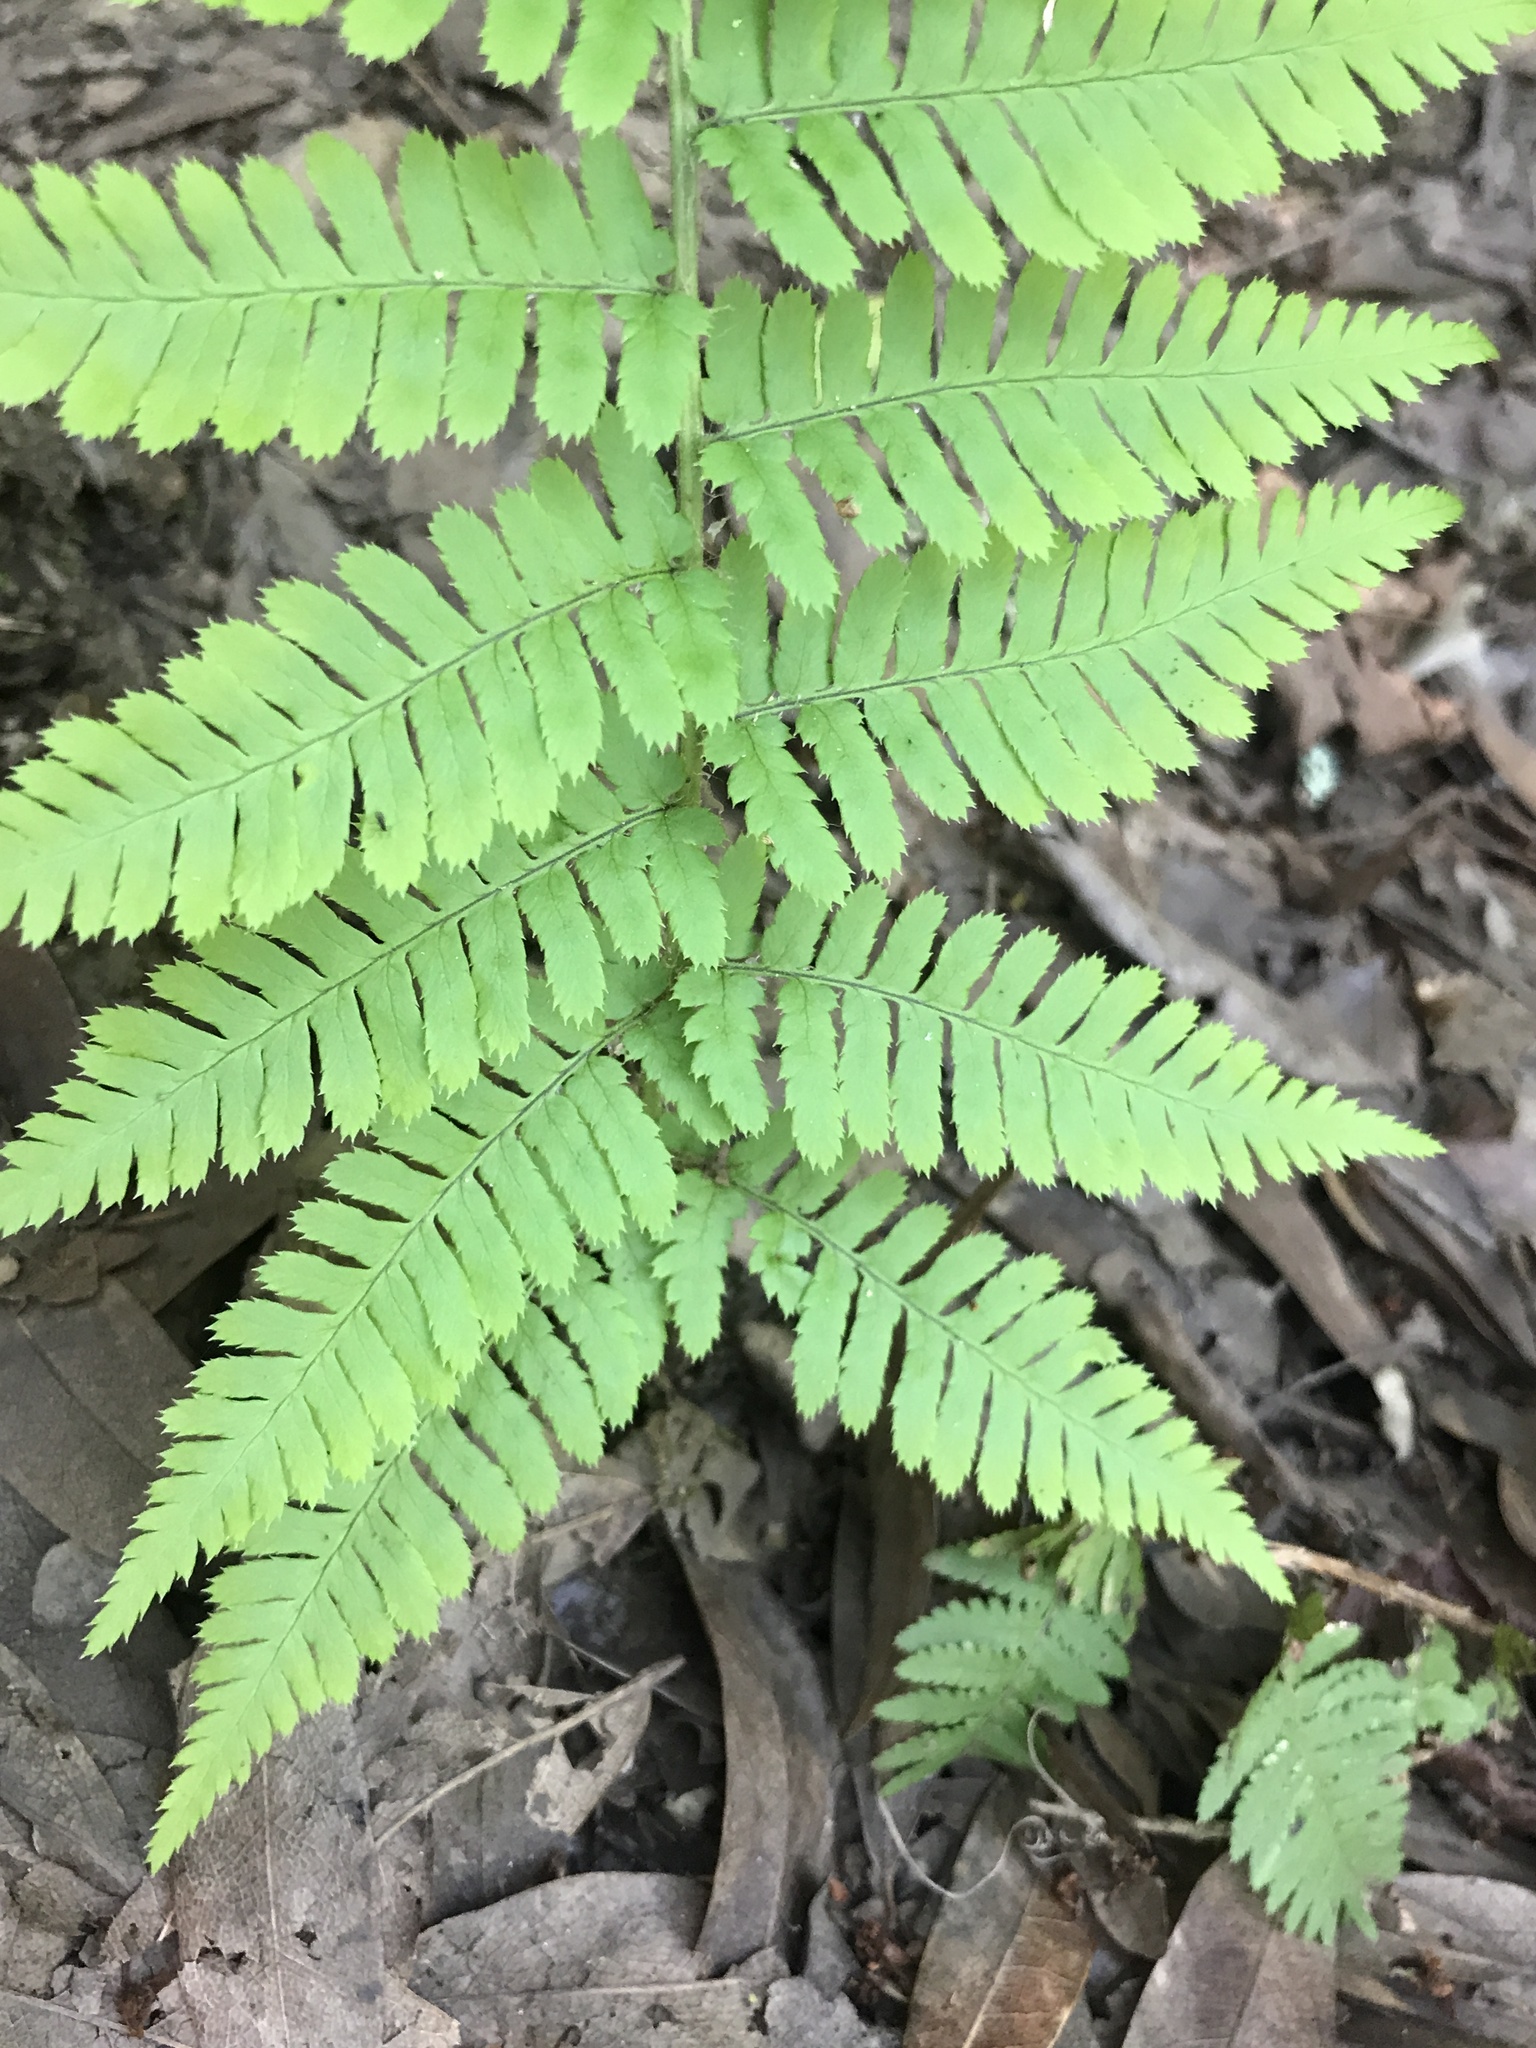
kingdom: Plantae
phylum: Tracheophyta
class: Polypodiopsida
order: Polypodiales
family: Dryopteridaceae
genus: Dryopteris
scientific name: Dryopteris arguta
